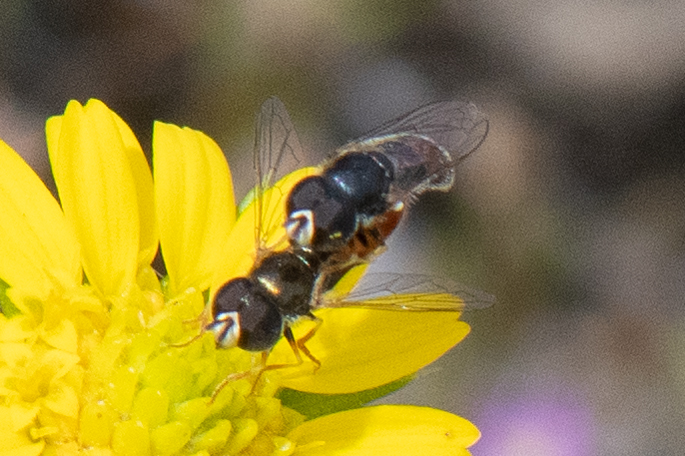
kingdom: Animalia
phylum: Arthropoda
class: Insecta
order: Diptera
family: Syrphidae
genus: Paragus
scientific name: Paragus haemorrhous
